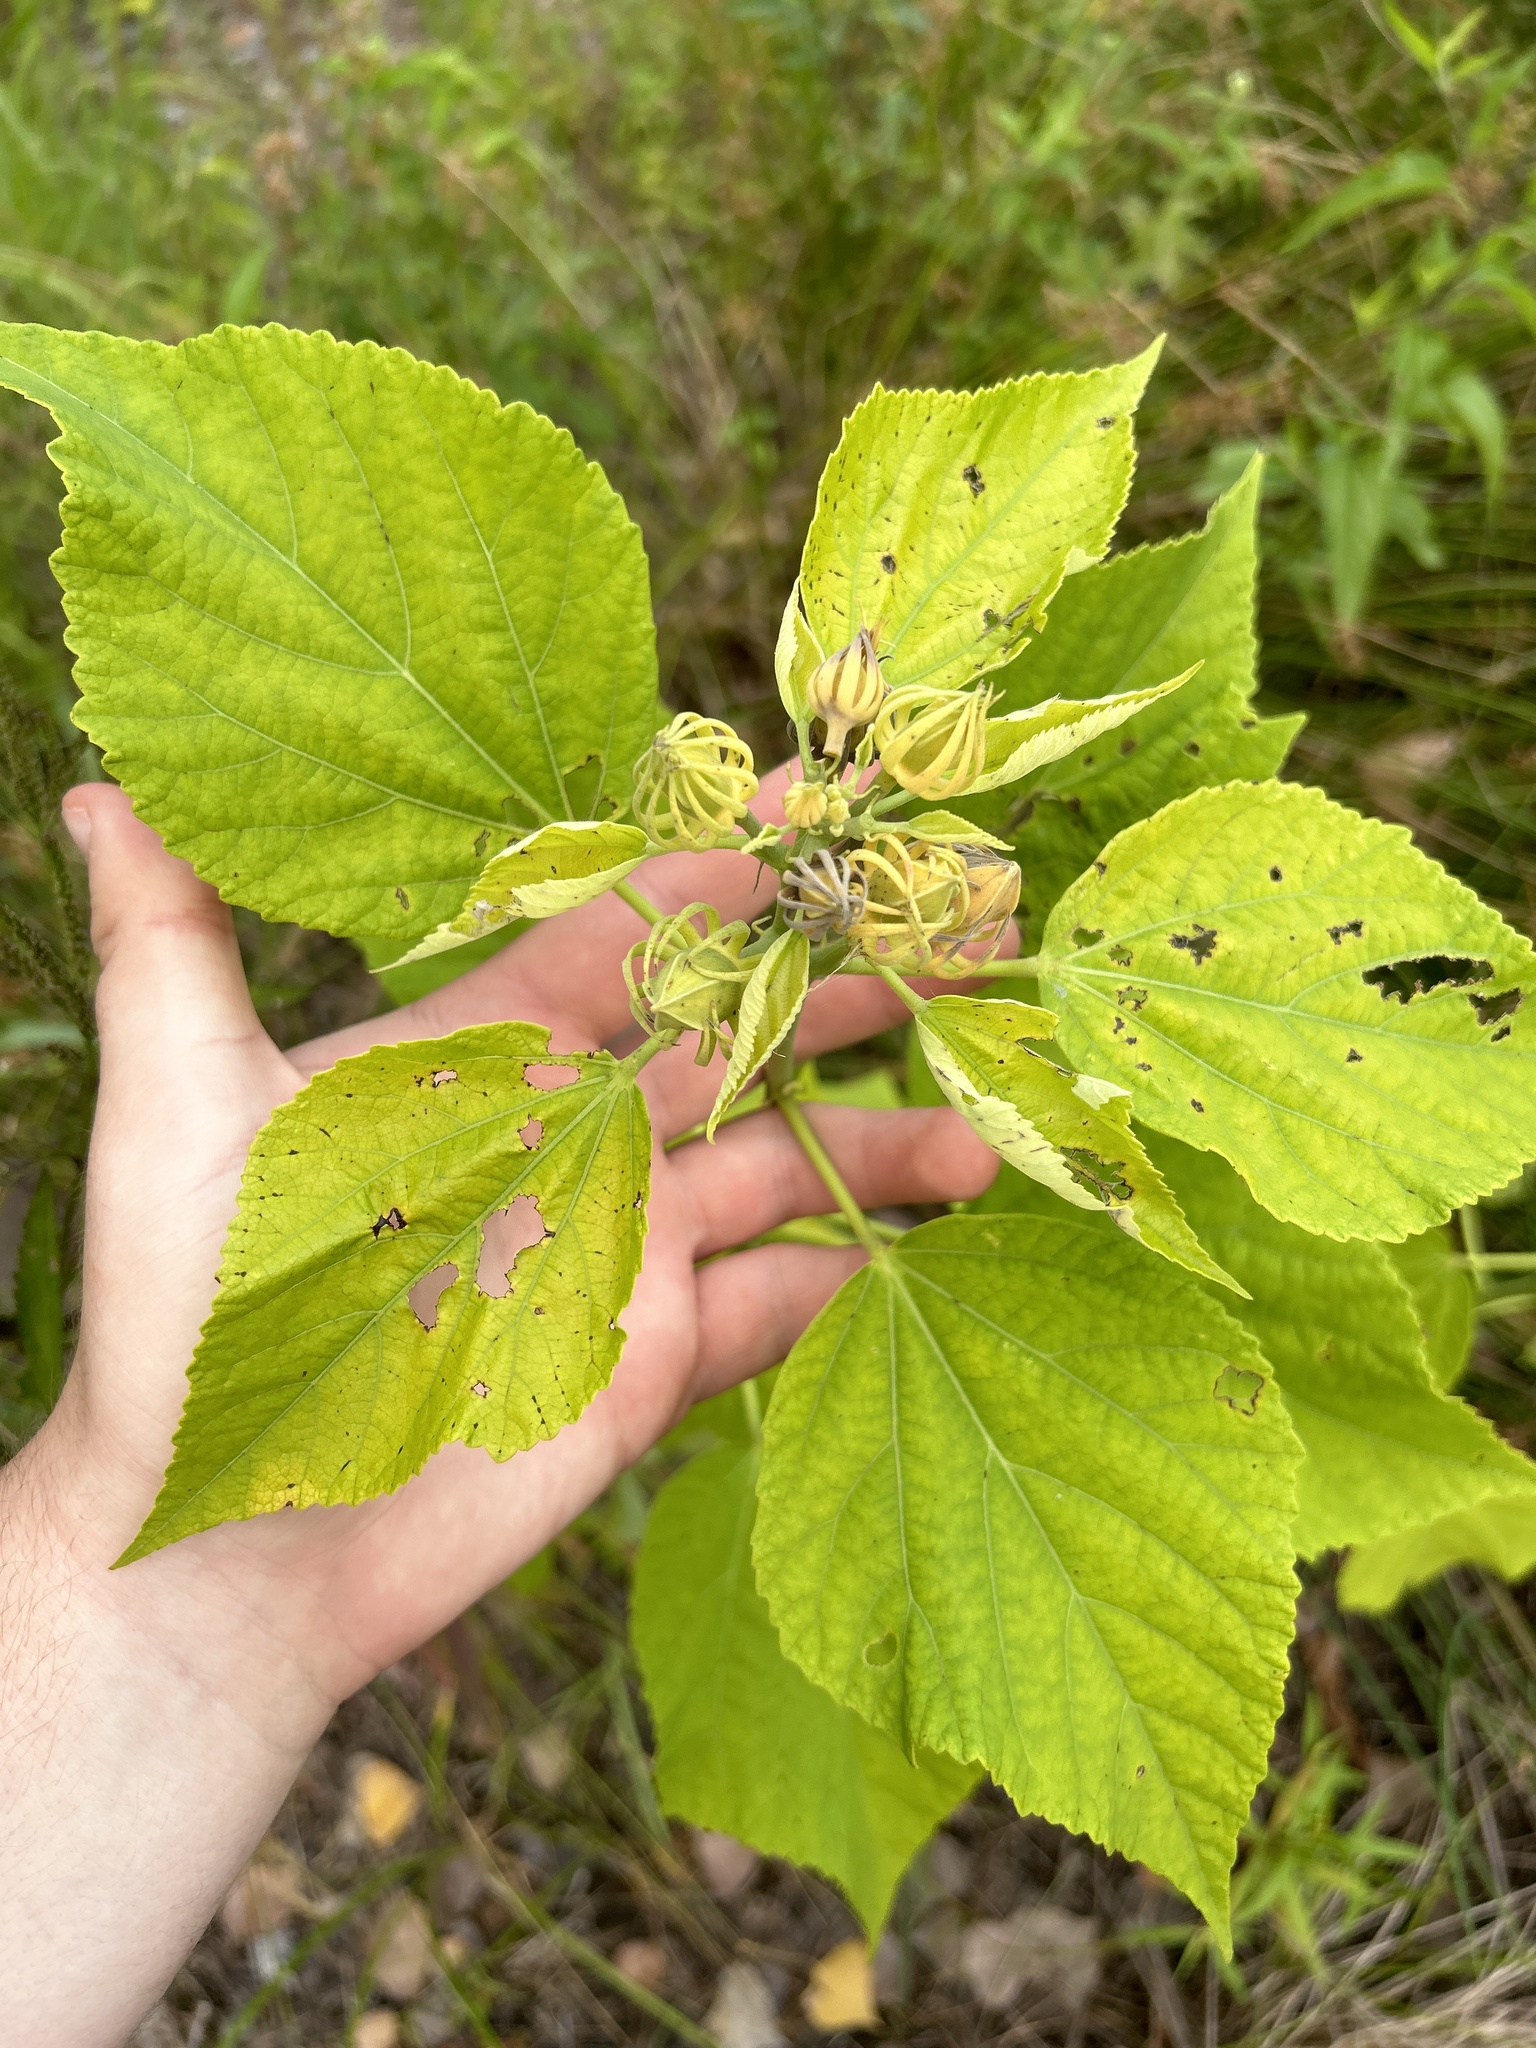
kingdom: Plantae
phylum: Tracheophyta
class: Magnoliopsida
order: Malvales
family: Malvaceae
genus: Hibiscus
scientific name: Hibiscus moscheutos
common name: Common rose-mallow
